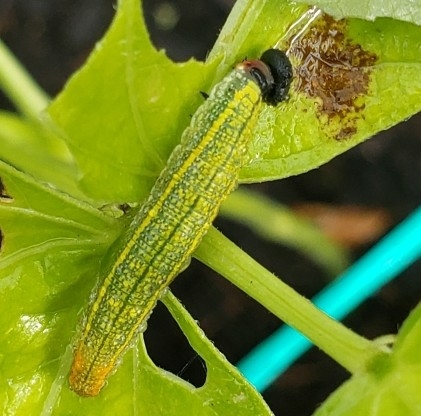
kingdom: Animalia
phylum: Arthropoda
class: Insecta
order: Lepidoptera
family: Hesperiidae
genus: Urbanus
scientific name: Urbanus proteus
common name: Long-tailed skipper
